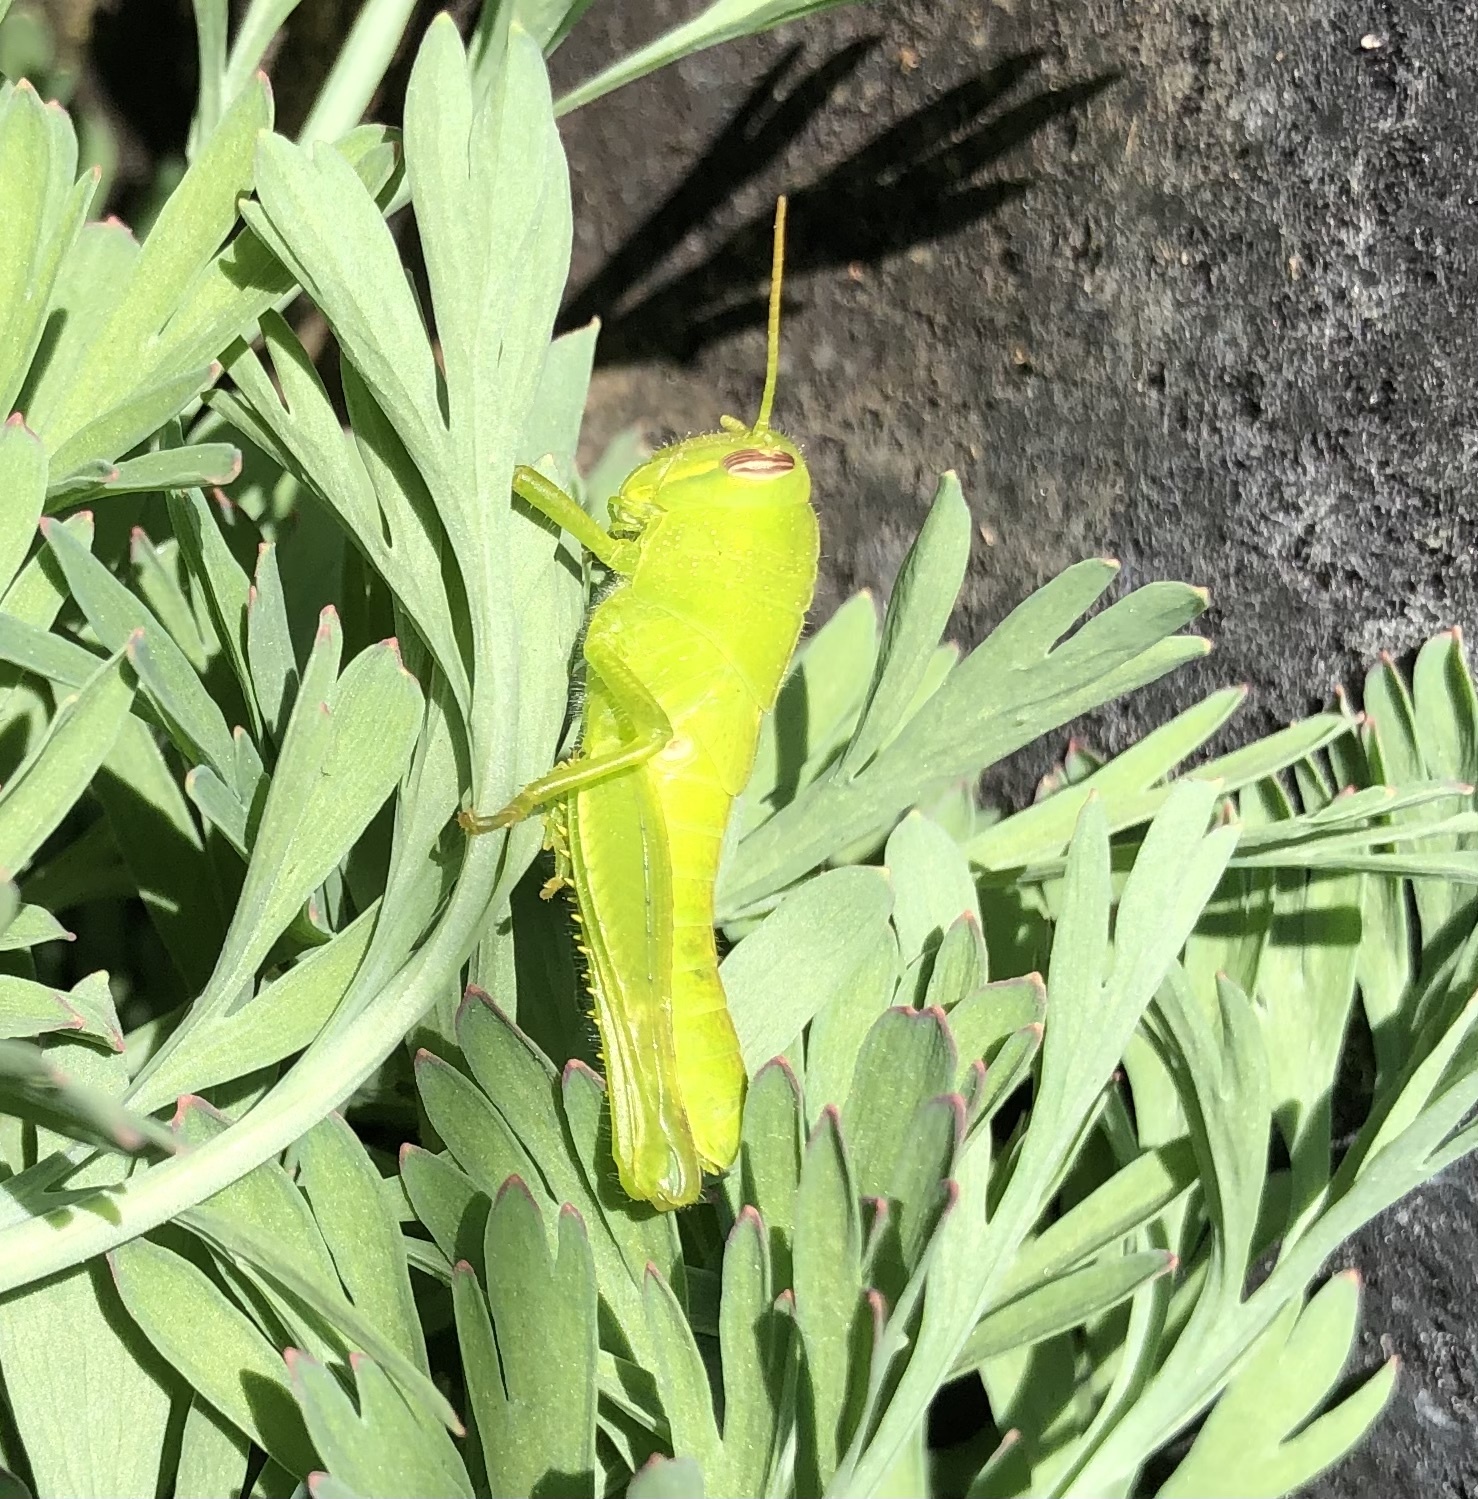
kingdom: Animalia
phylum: Arthropoda
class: Insecta
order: Orthoptera
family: Acrididae
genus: Schistocerca
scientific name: Schistocerca nitens
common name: Vagrant grasshopper
